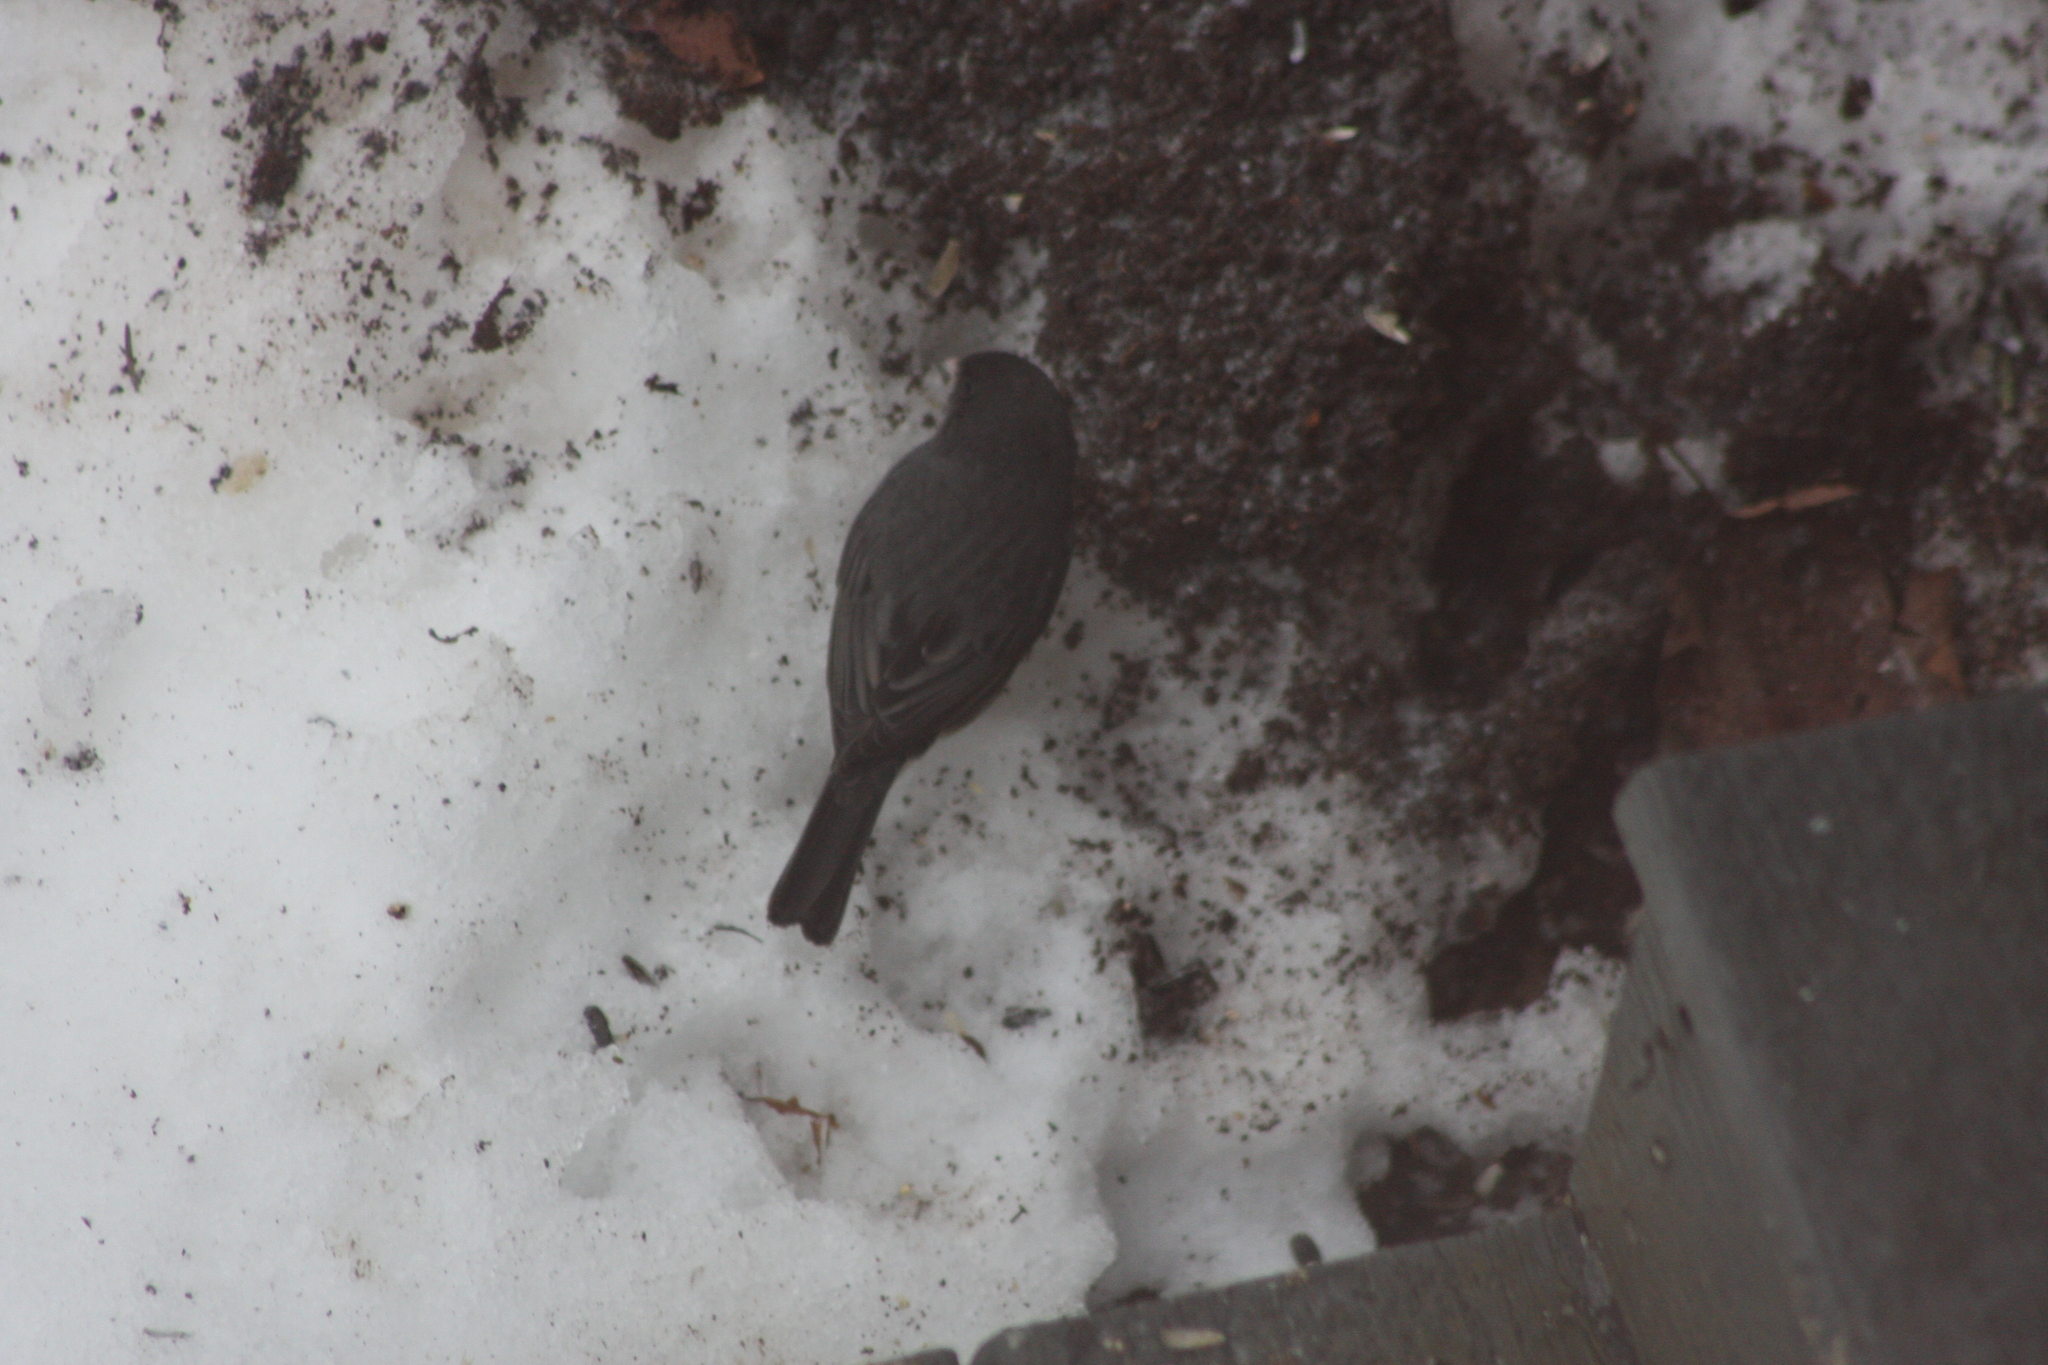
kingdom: Animalia
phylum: Chordata
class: Aves
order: Passeriformes
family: Passerellidae
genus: Junco
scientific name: Junco hyemalis
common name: Dark-eyed junco
